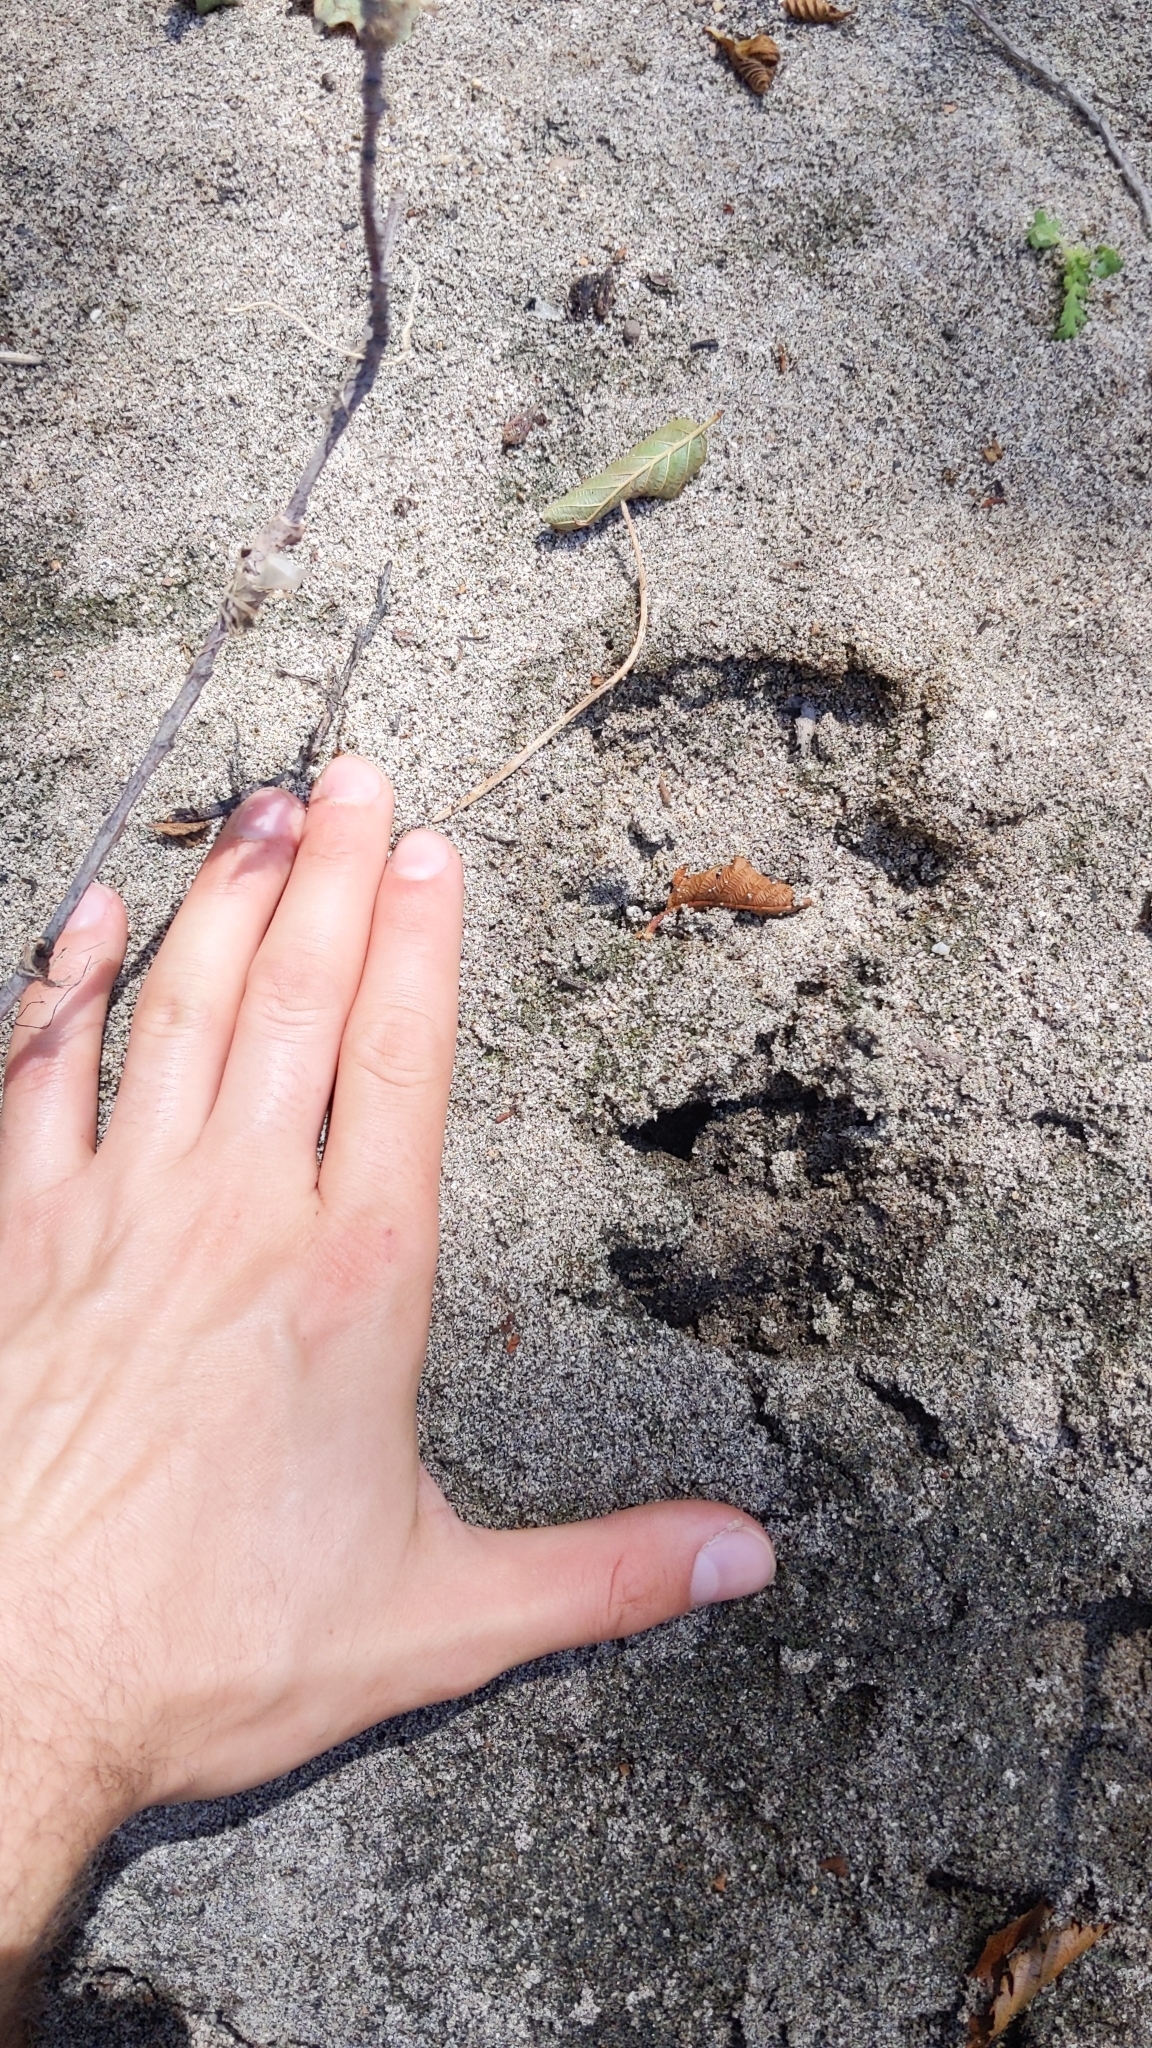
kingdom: Animalia
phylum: Chordata
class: Mammalia
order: Artiodactyla
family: Cervidae
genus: Odocoileus
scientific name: Odocoileus hemionus
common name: Mule deer
